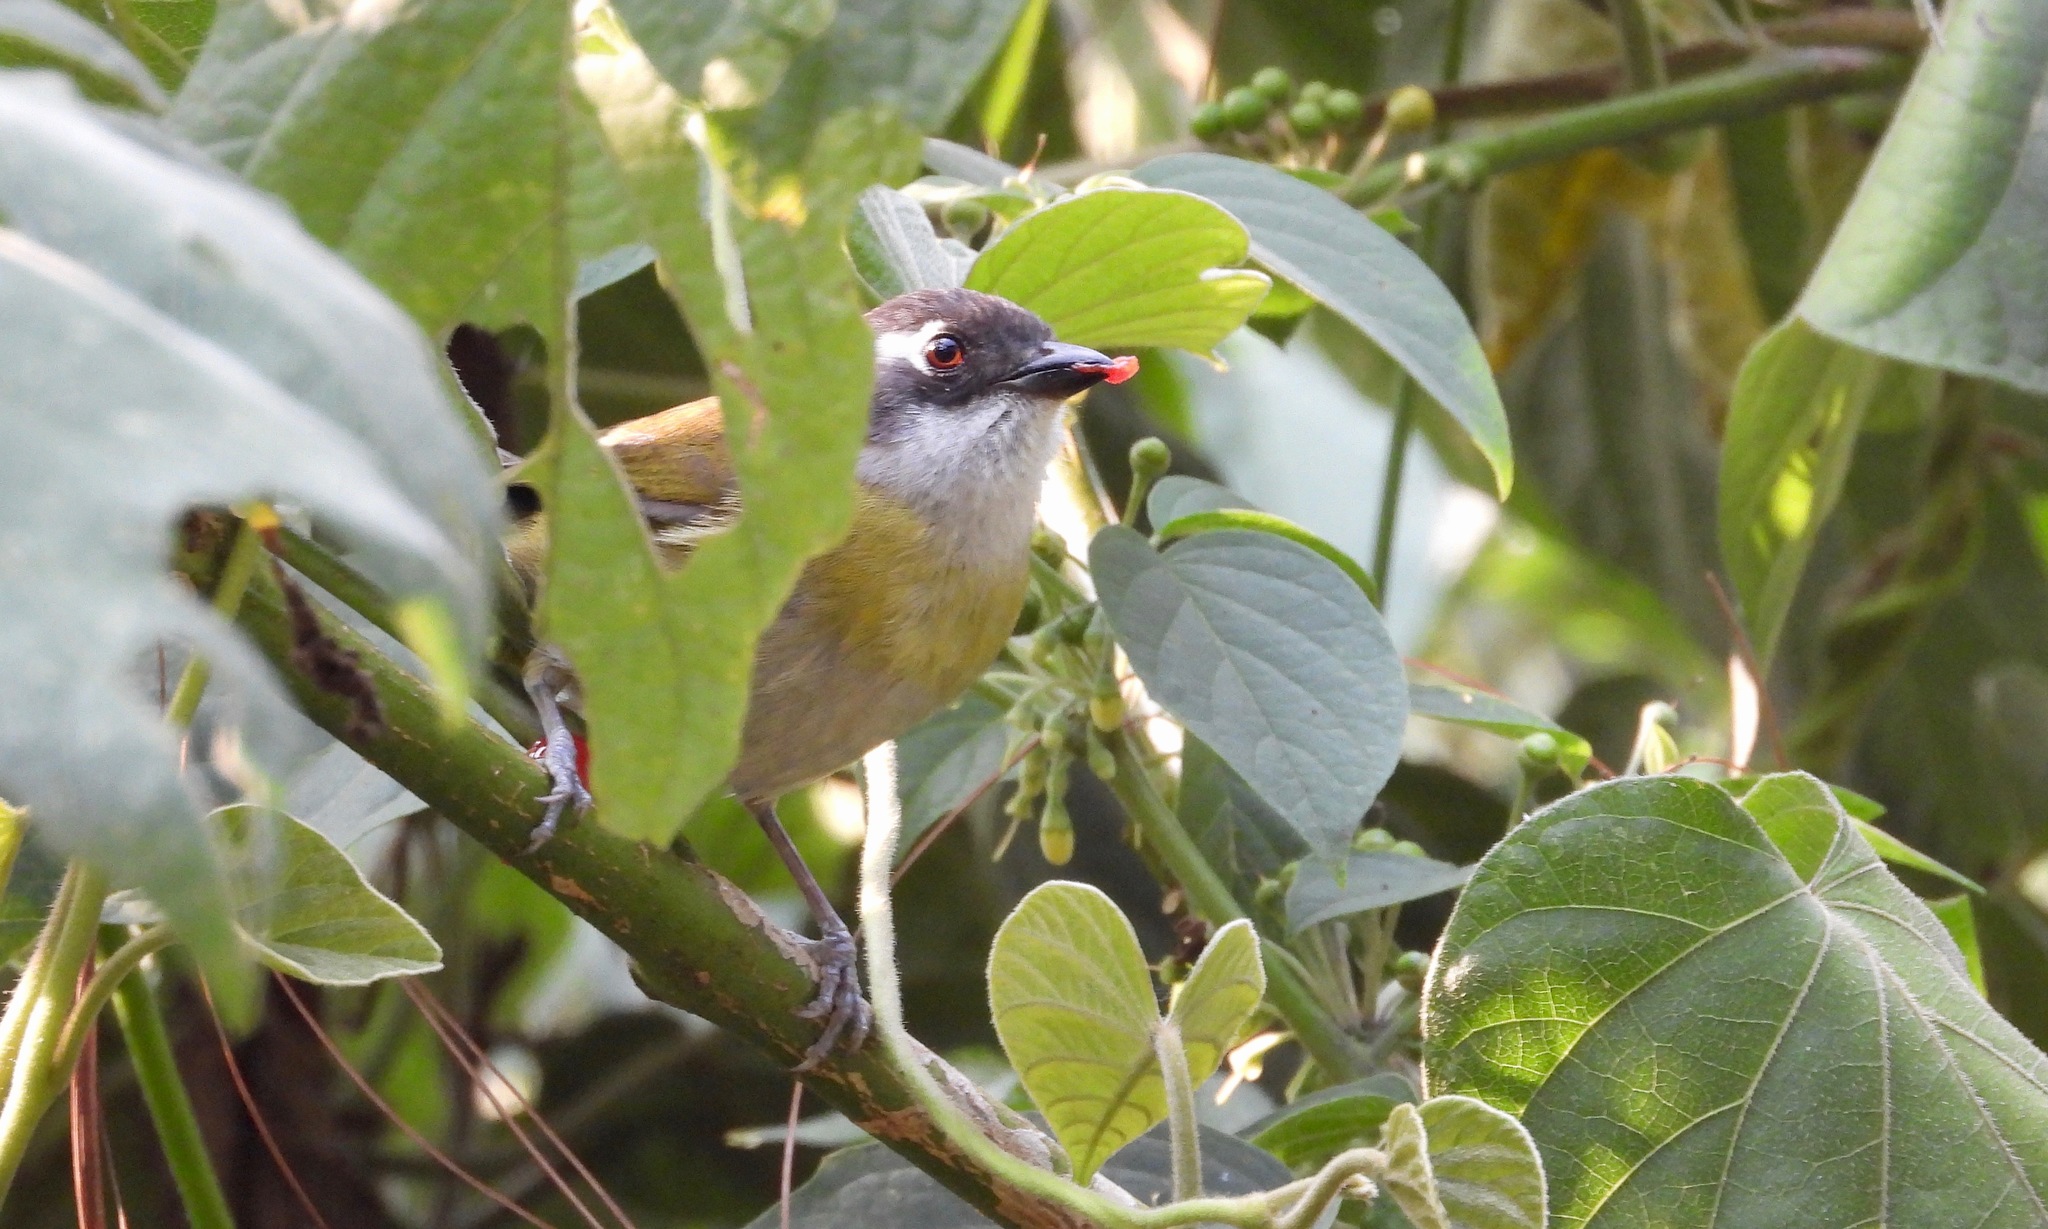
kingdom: Animalia
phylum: Chordata
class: Aves
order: Passeriformes
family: Passerellidae
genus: Chlorospingus
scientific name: Chlorospingus flavopectus
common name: Common chlorospingus
